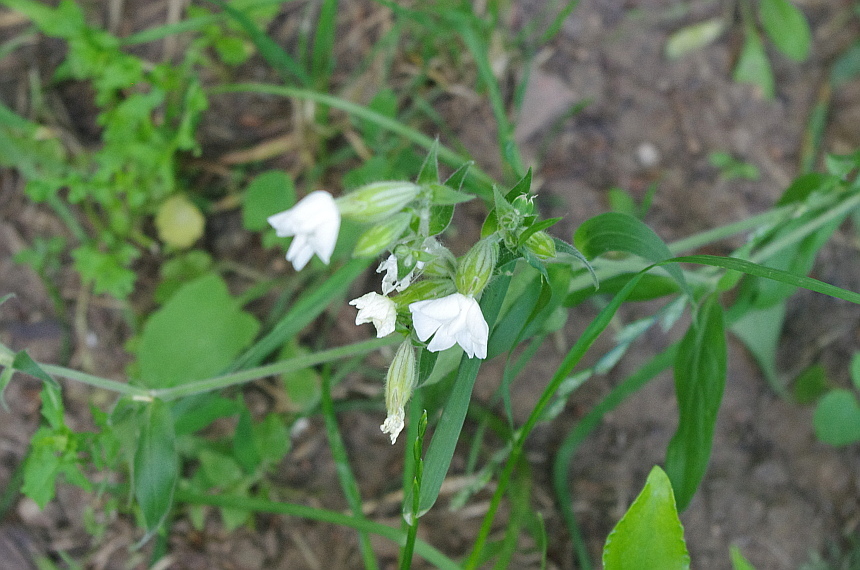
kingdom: Plantae
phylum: Tracheophyta
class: Magnoliopsida
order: Caryophyllales
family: Caryophyllaceae
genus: Silene
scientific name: Silene latifolia
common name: White campion
